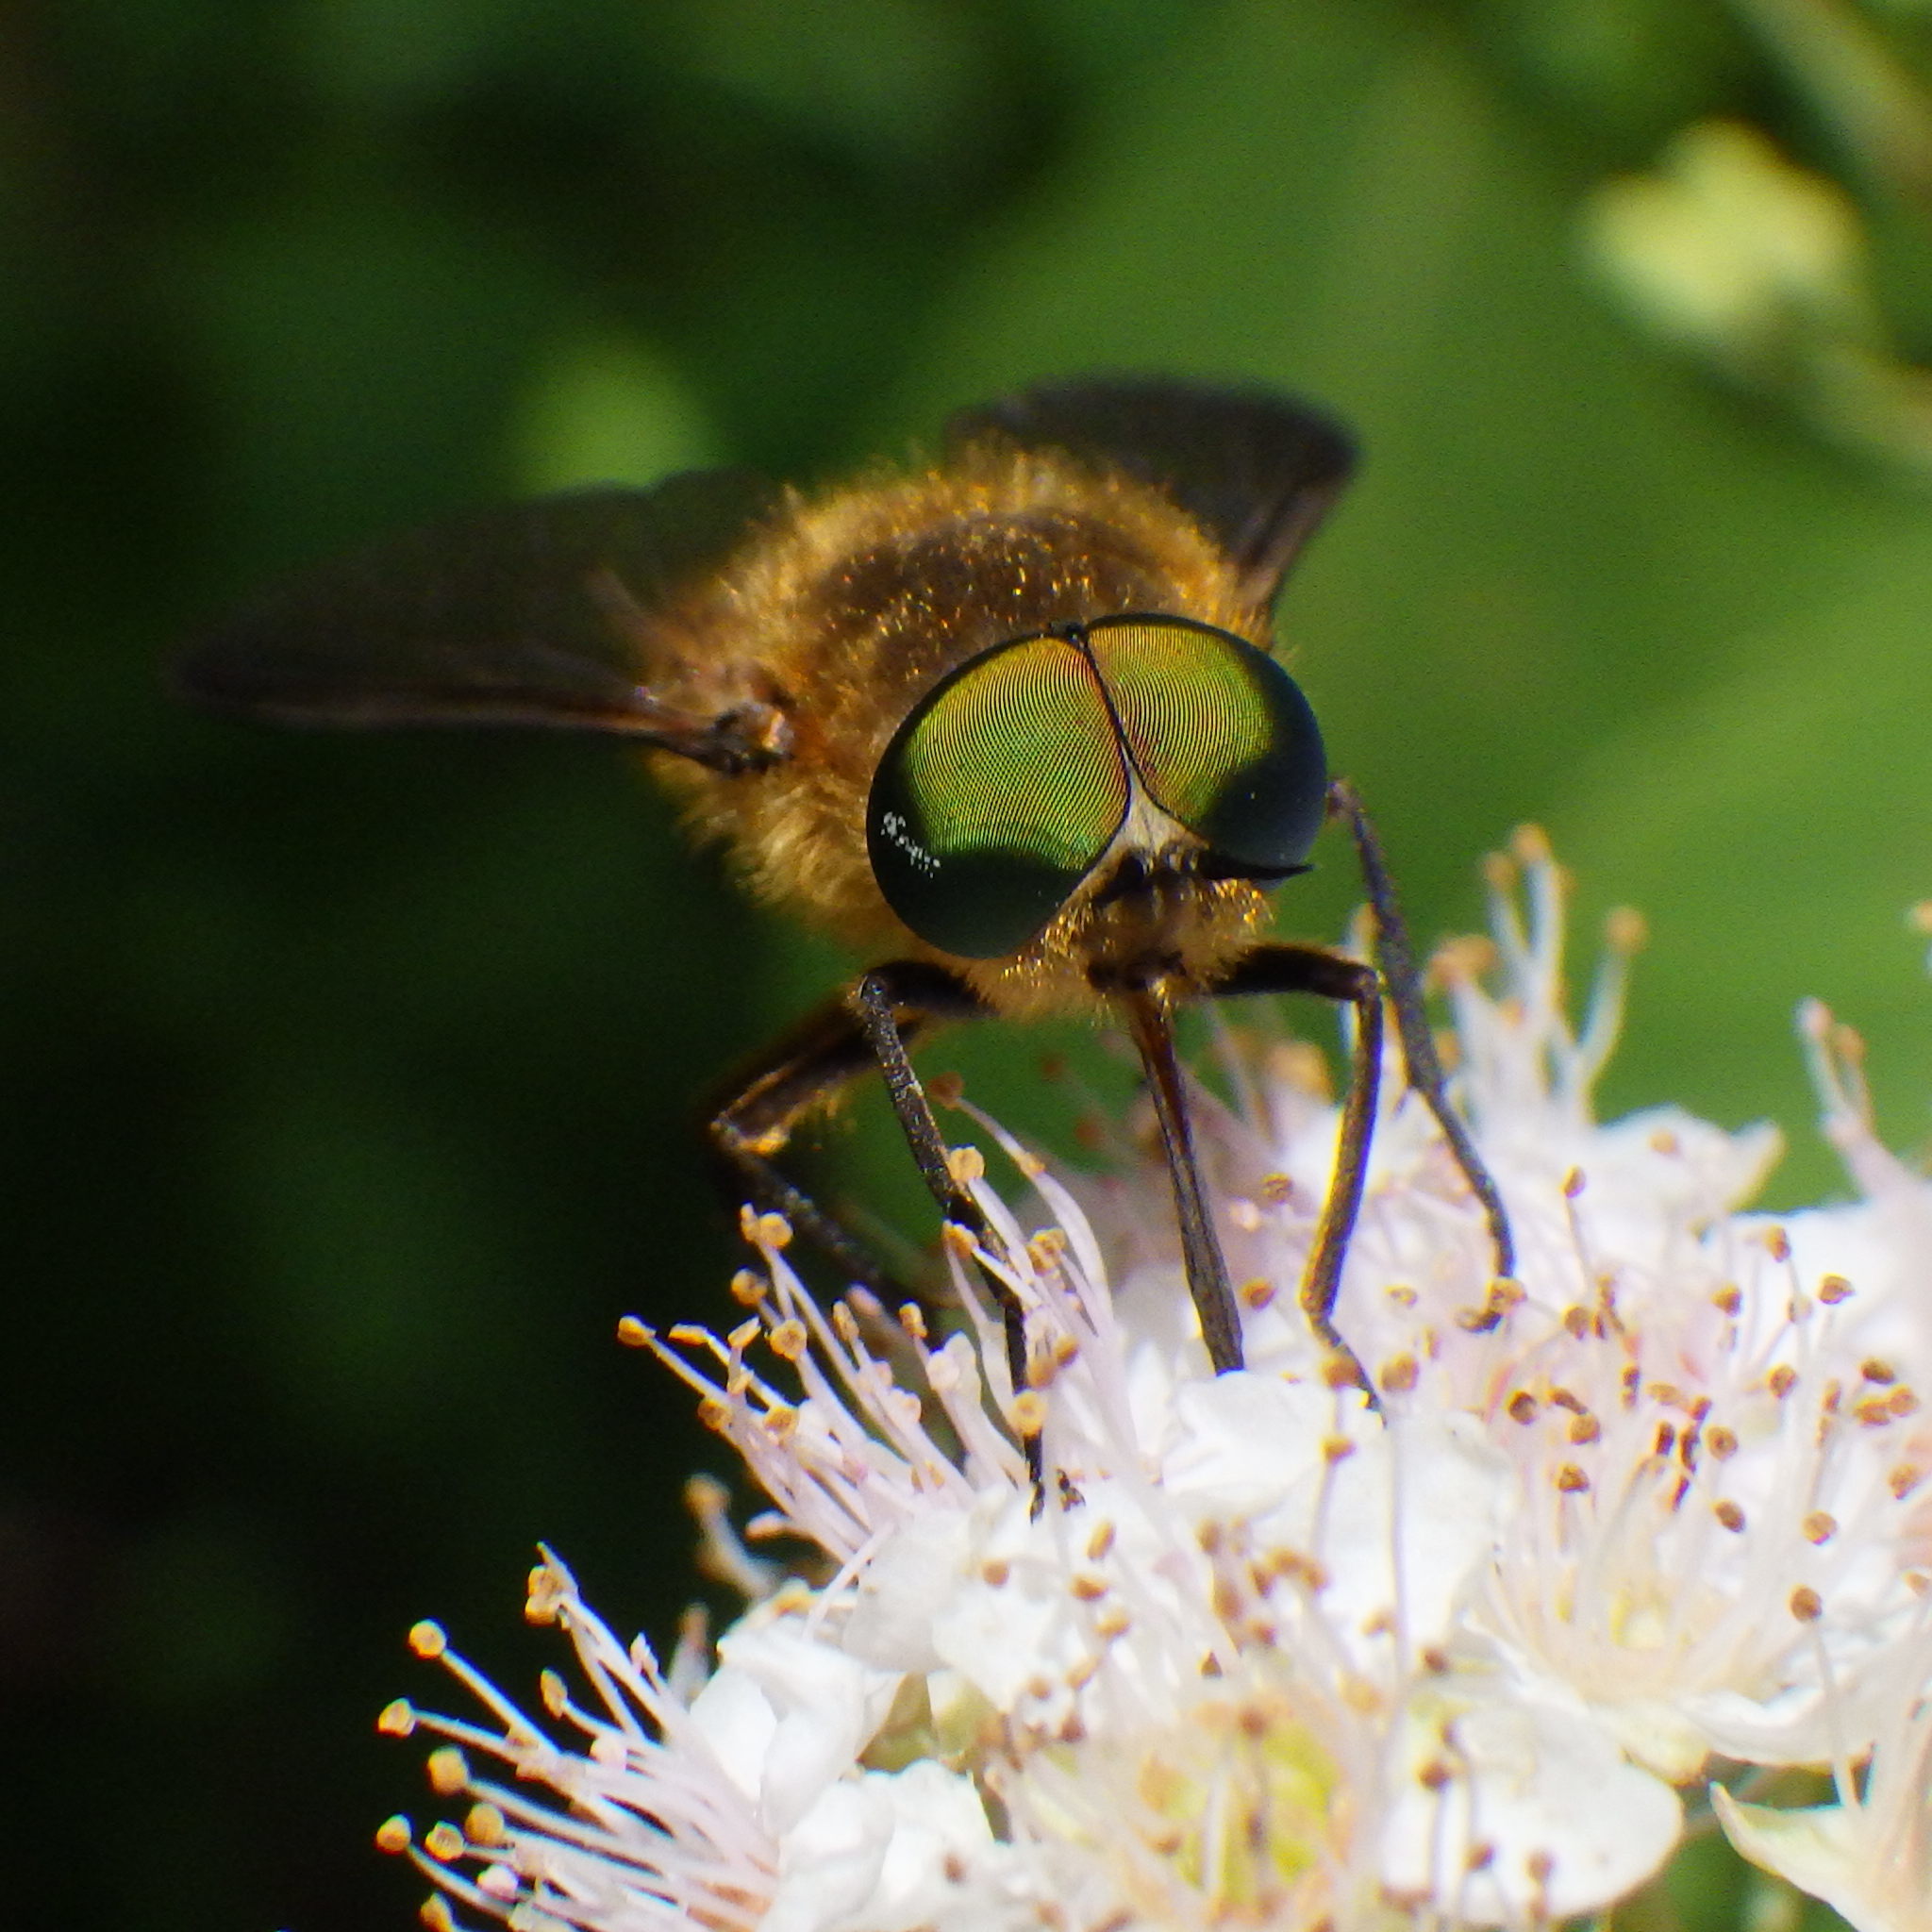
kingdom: Animalia
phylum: Arthropoda
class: Insecta
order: Diptera
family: Tabanidae
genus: Stonemyia
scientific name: Stonemyia tranquilla
